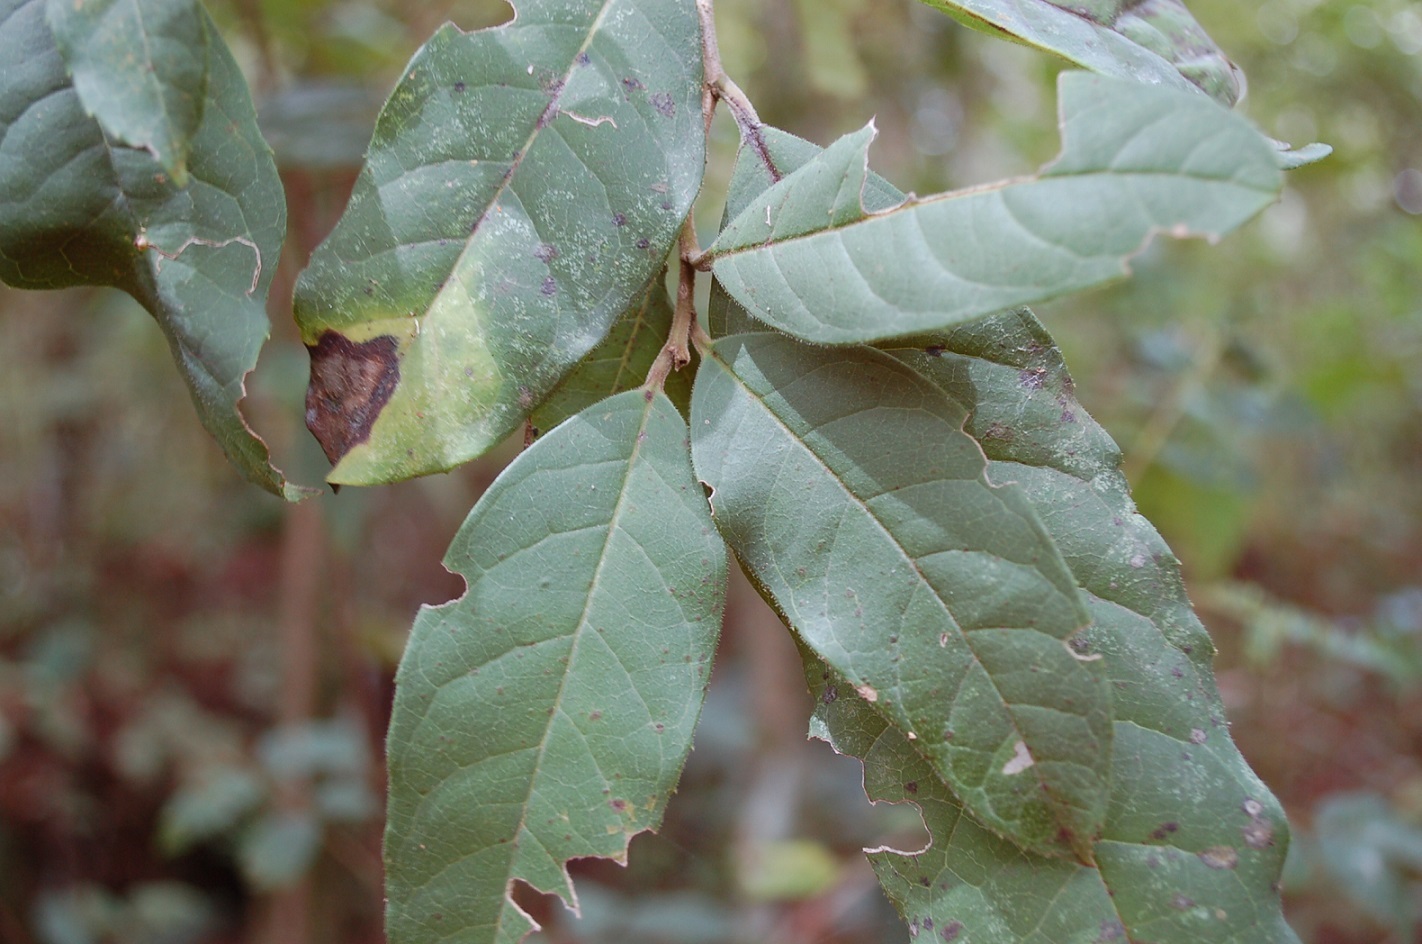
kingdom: Plantae
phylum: Tracheophyta
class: Magnoliopsida
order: Aquifoliales
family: Aquifoliaceae
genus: Ilex
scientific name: Ilex brandegeeana
